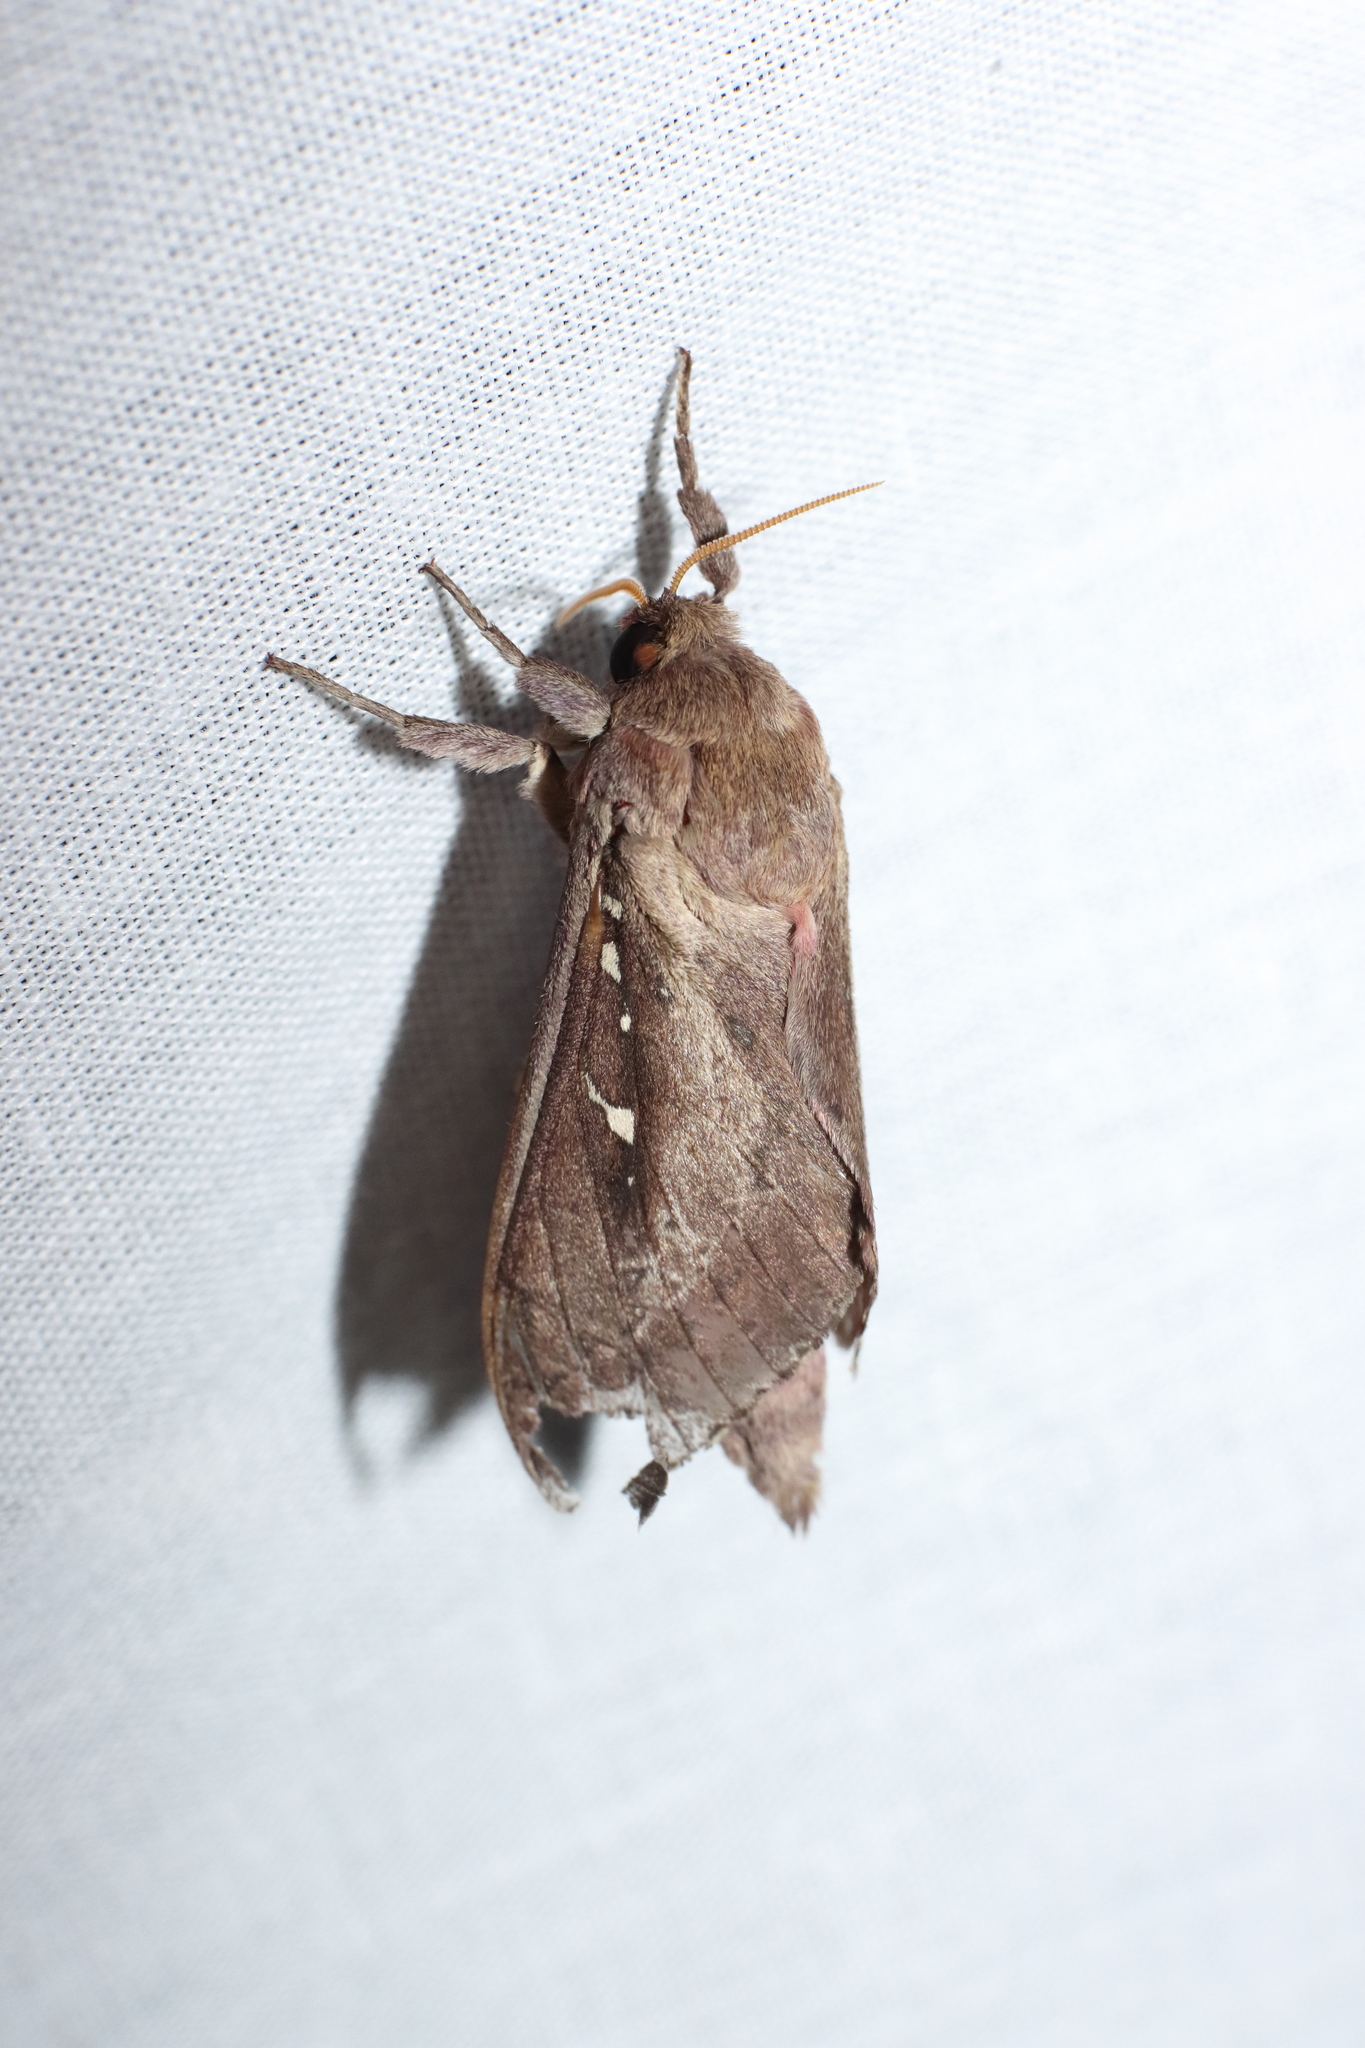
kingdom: Animalia
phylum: Arthropoda
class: Insecta
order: Lepidoptera
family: Hepialidae
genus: Wiseana
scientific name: Wiseana signata
